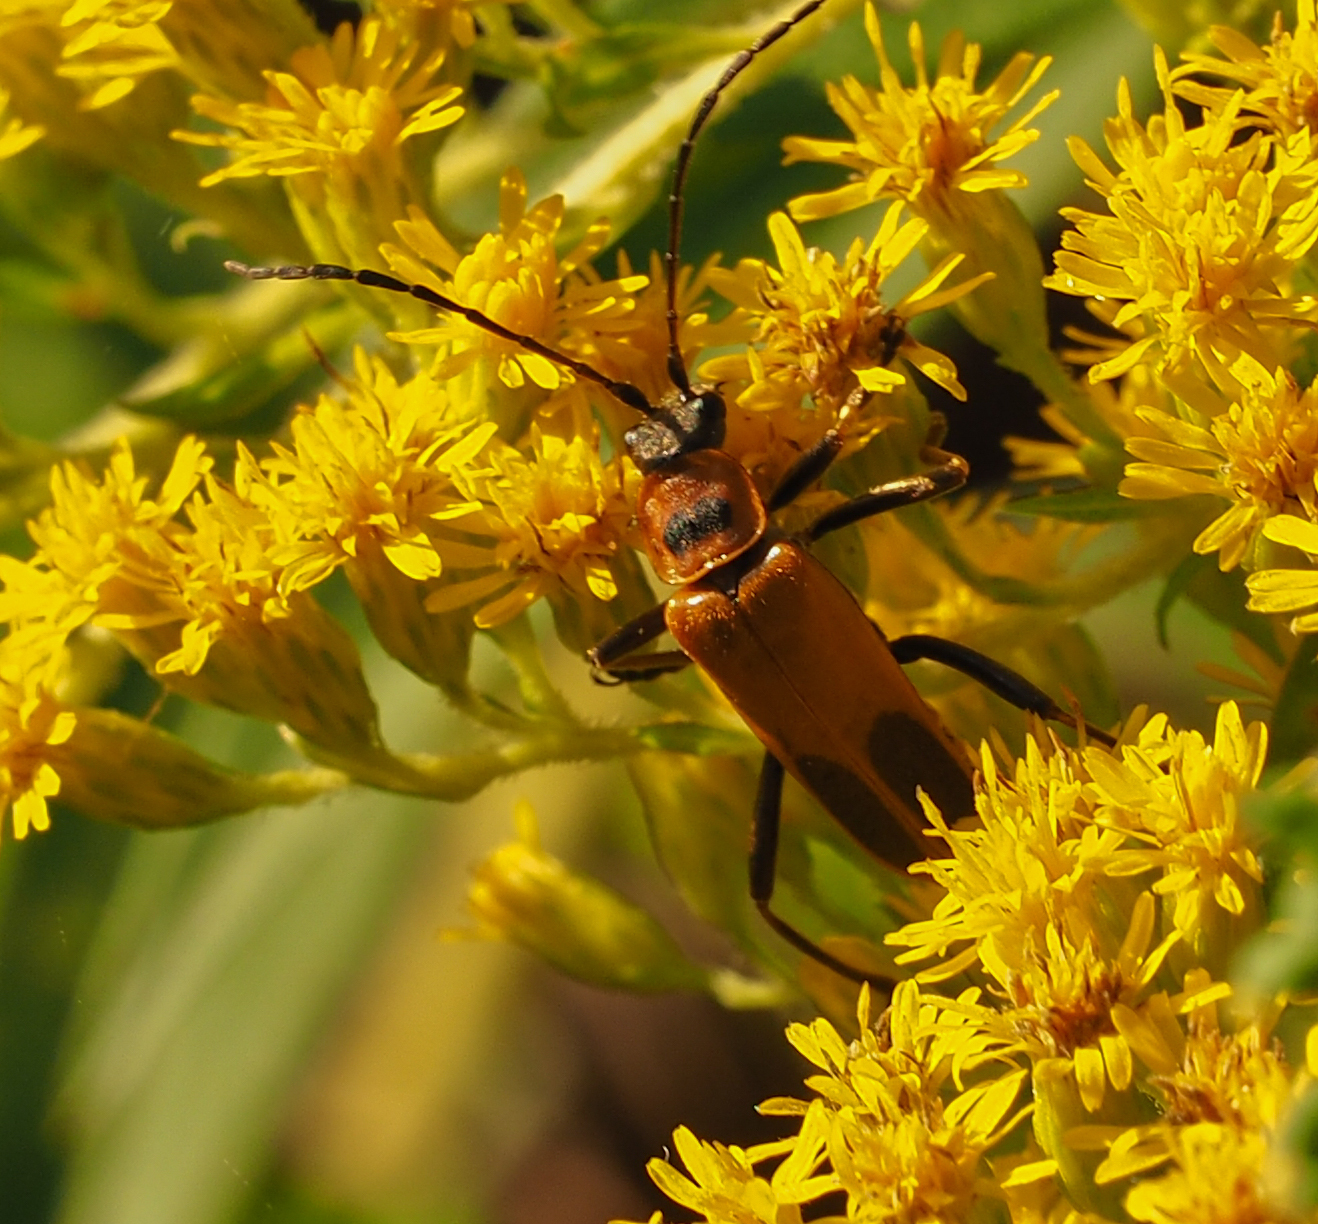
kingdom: Animalia
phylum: Arthropoda
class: Insecta
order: Coleoptera
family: Cantharidae
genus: Chauliognathus
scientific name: Chauliognathus pensylvanicus
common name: Goldenrod soldier beetle
